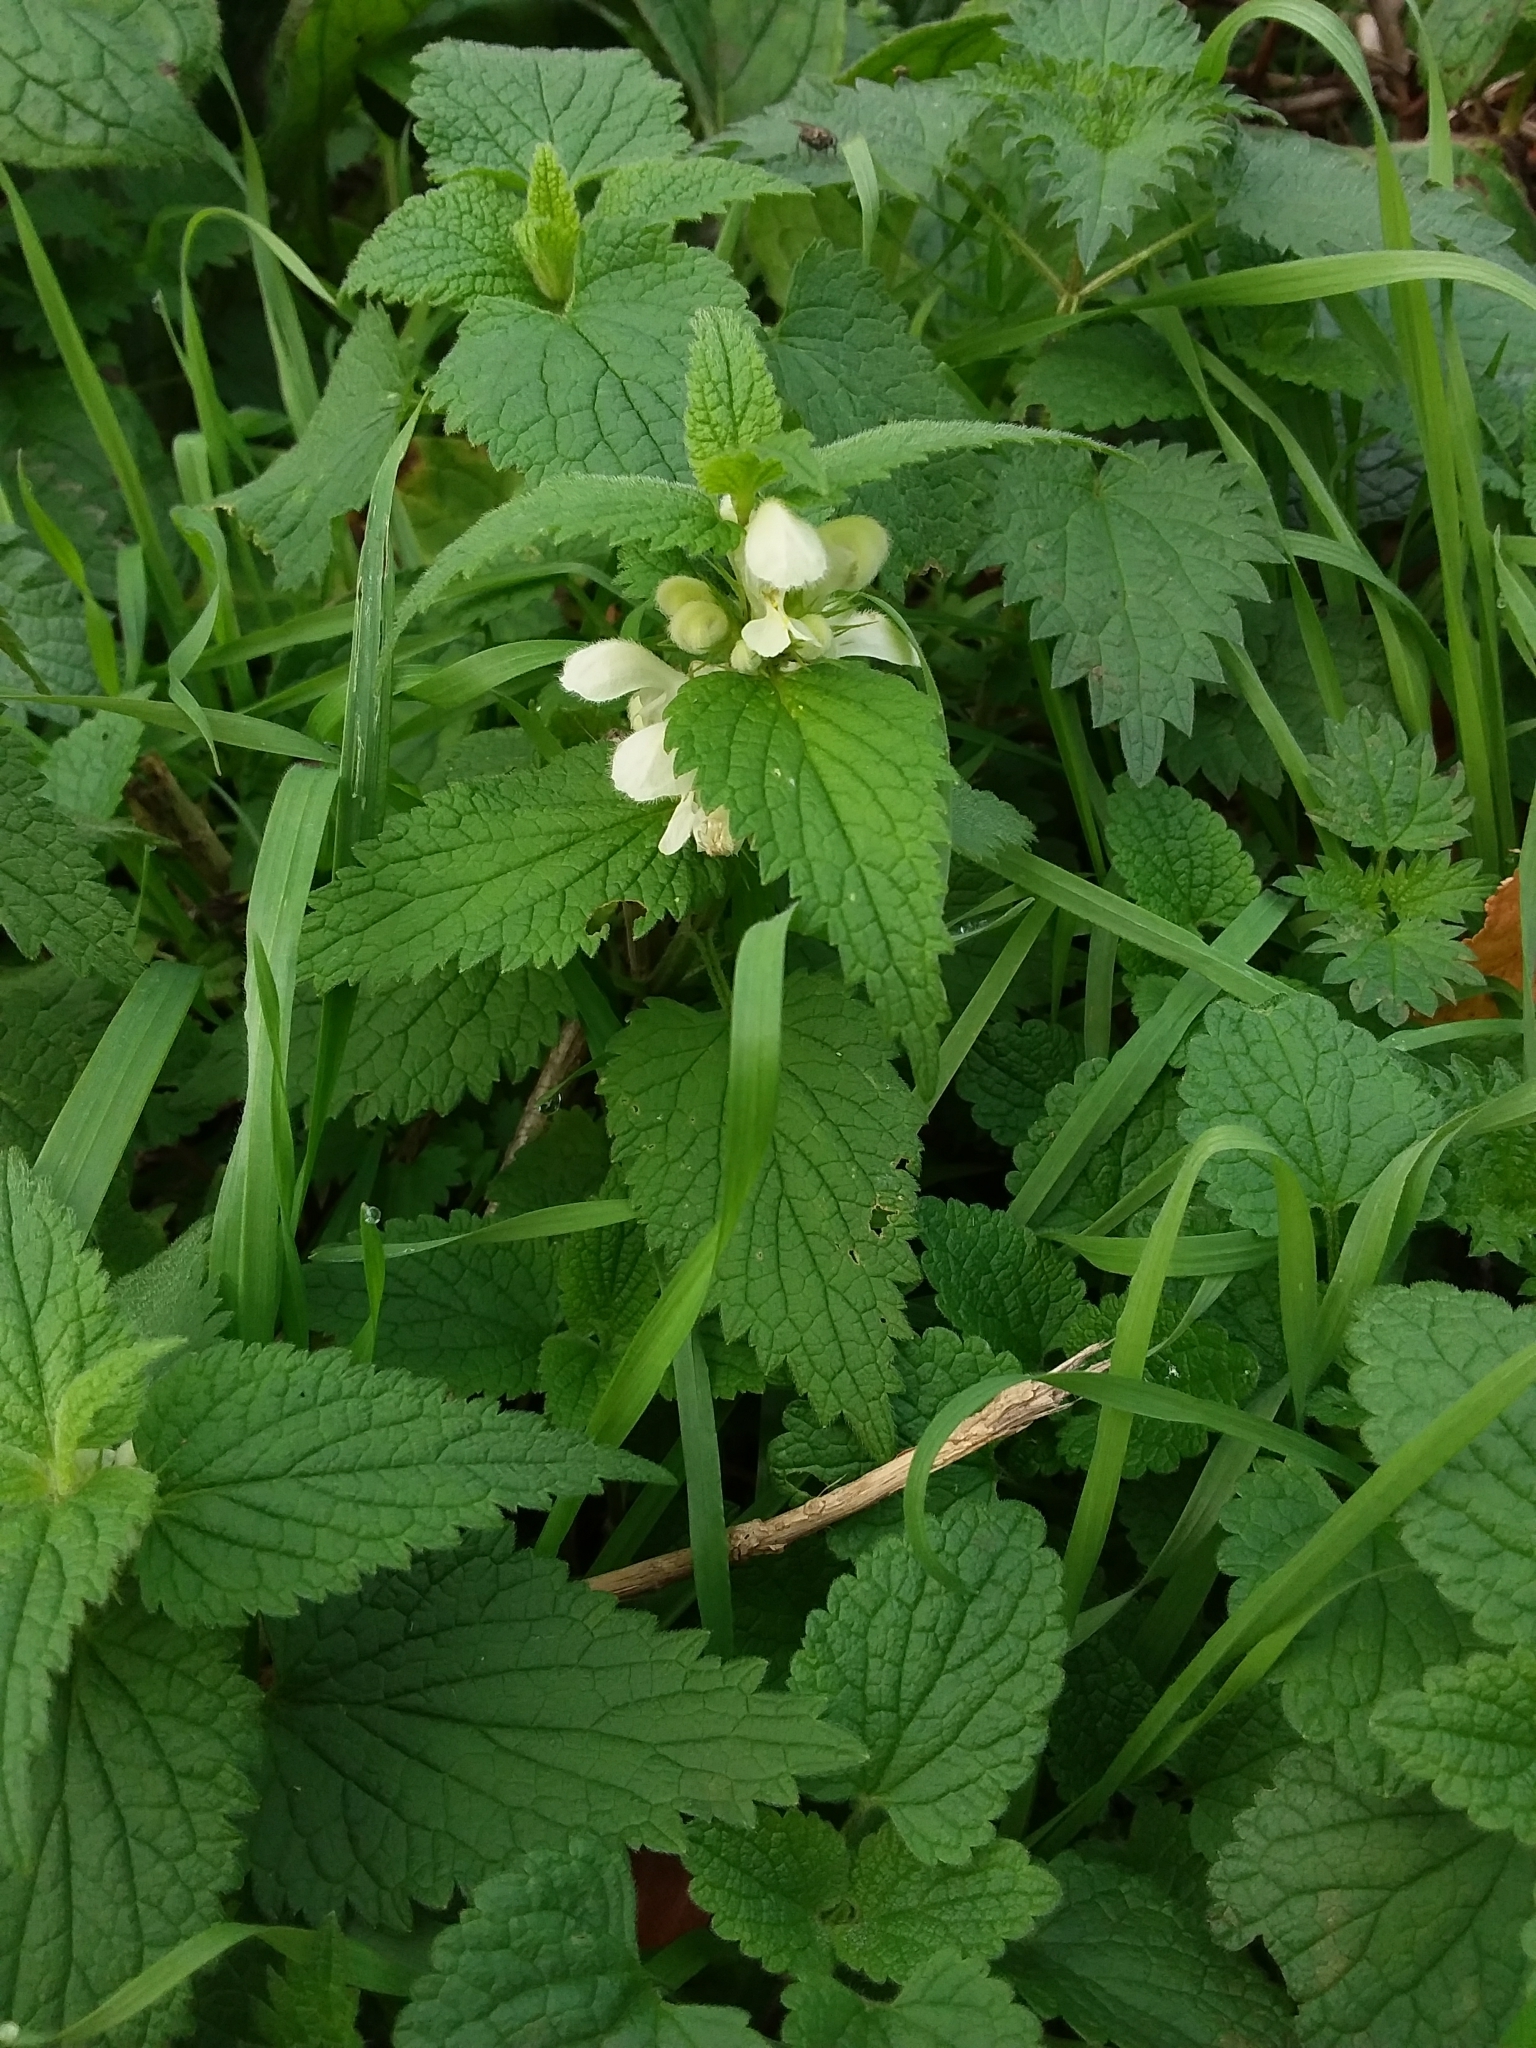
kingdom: Plantae
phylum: Tracheophyta
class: Magnoliopsida
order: Lamiales
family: Lamiaceae
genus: Lamium
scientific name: Lamium album
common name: White dead-nettle
